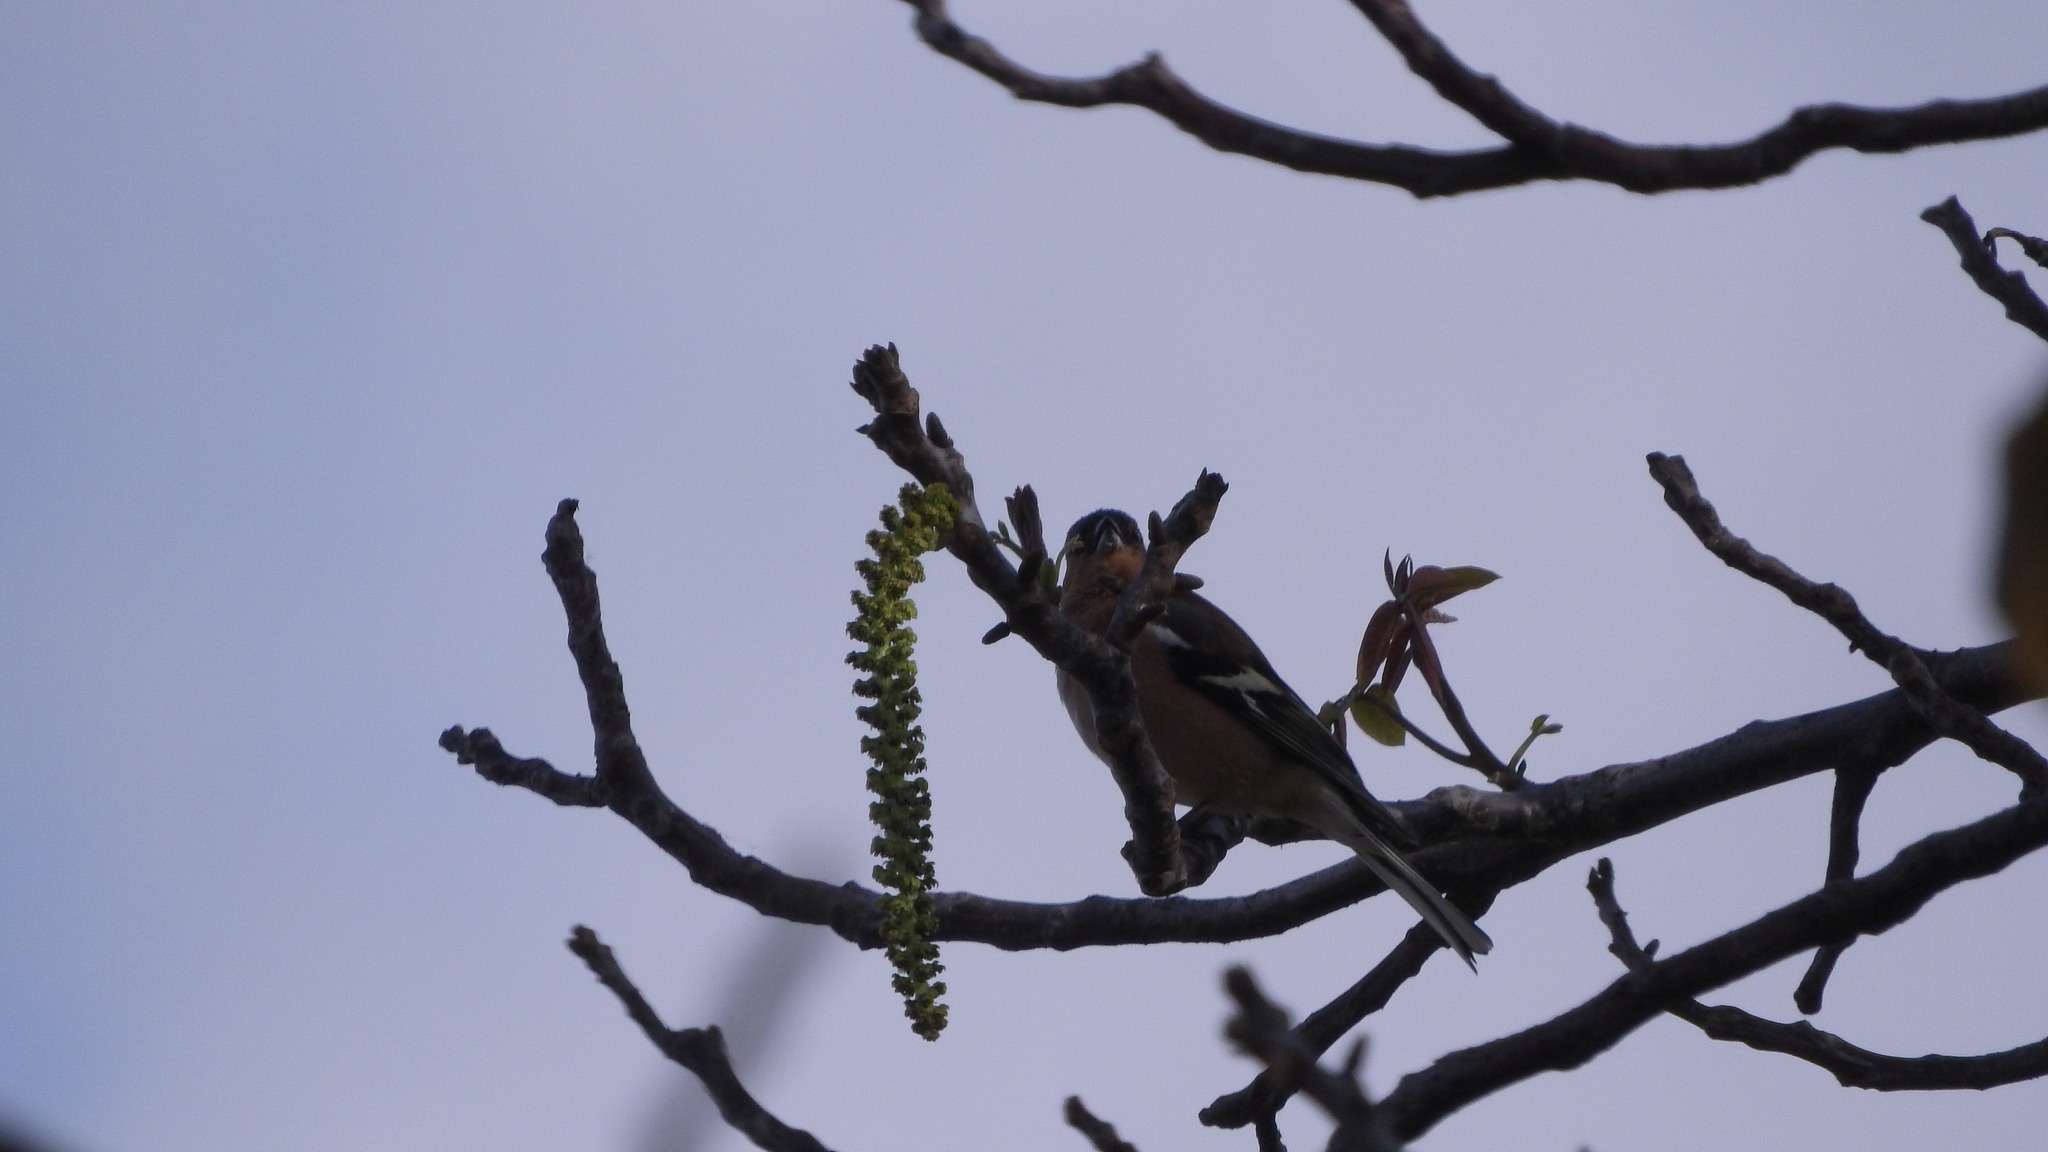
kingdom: Animalia
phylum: Chordata
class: Aves
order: Passeriformes
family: Fringillidae
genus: Fringilla
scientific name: Fringilla coelebs
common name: Common chaffinch
